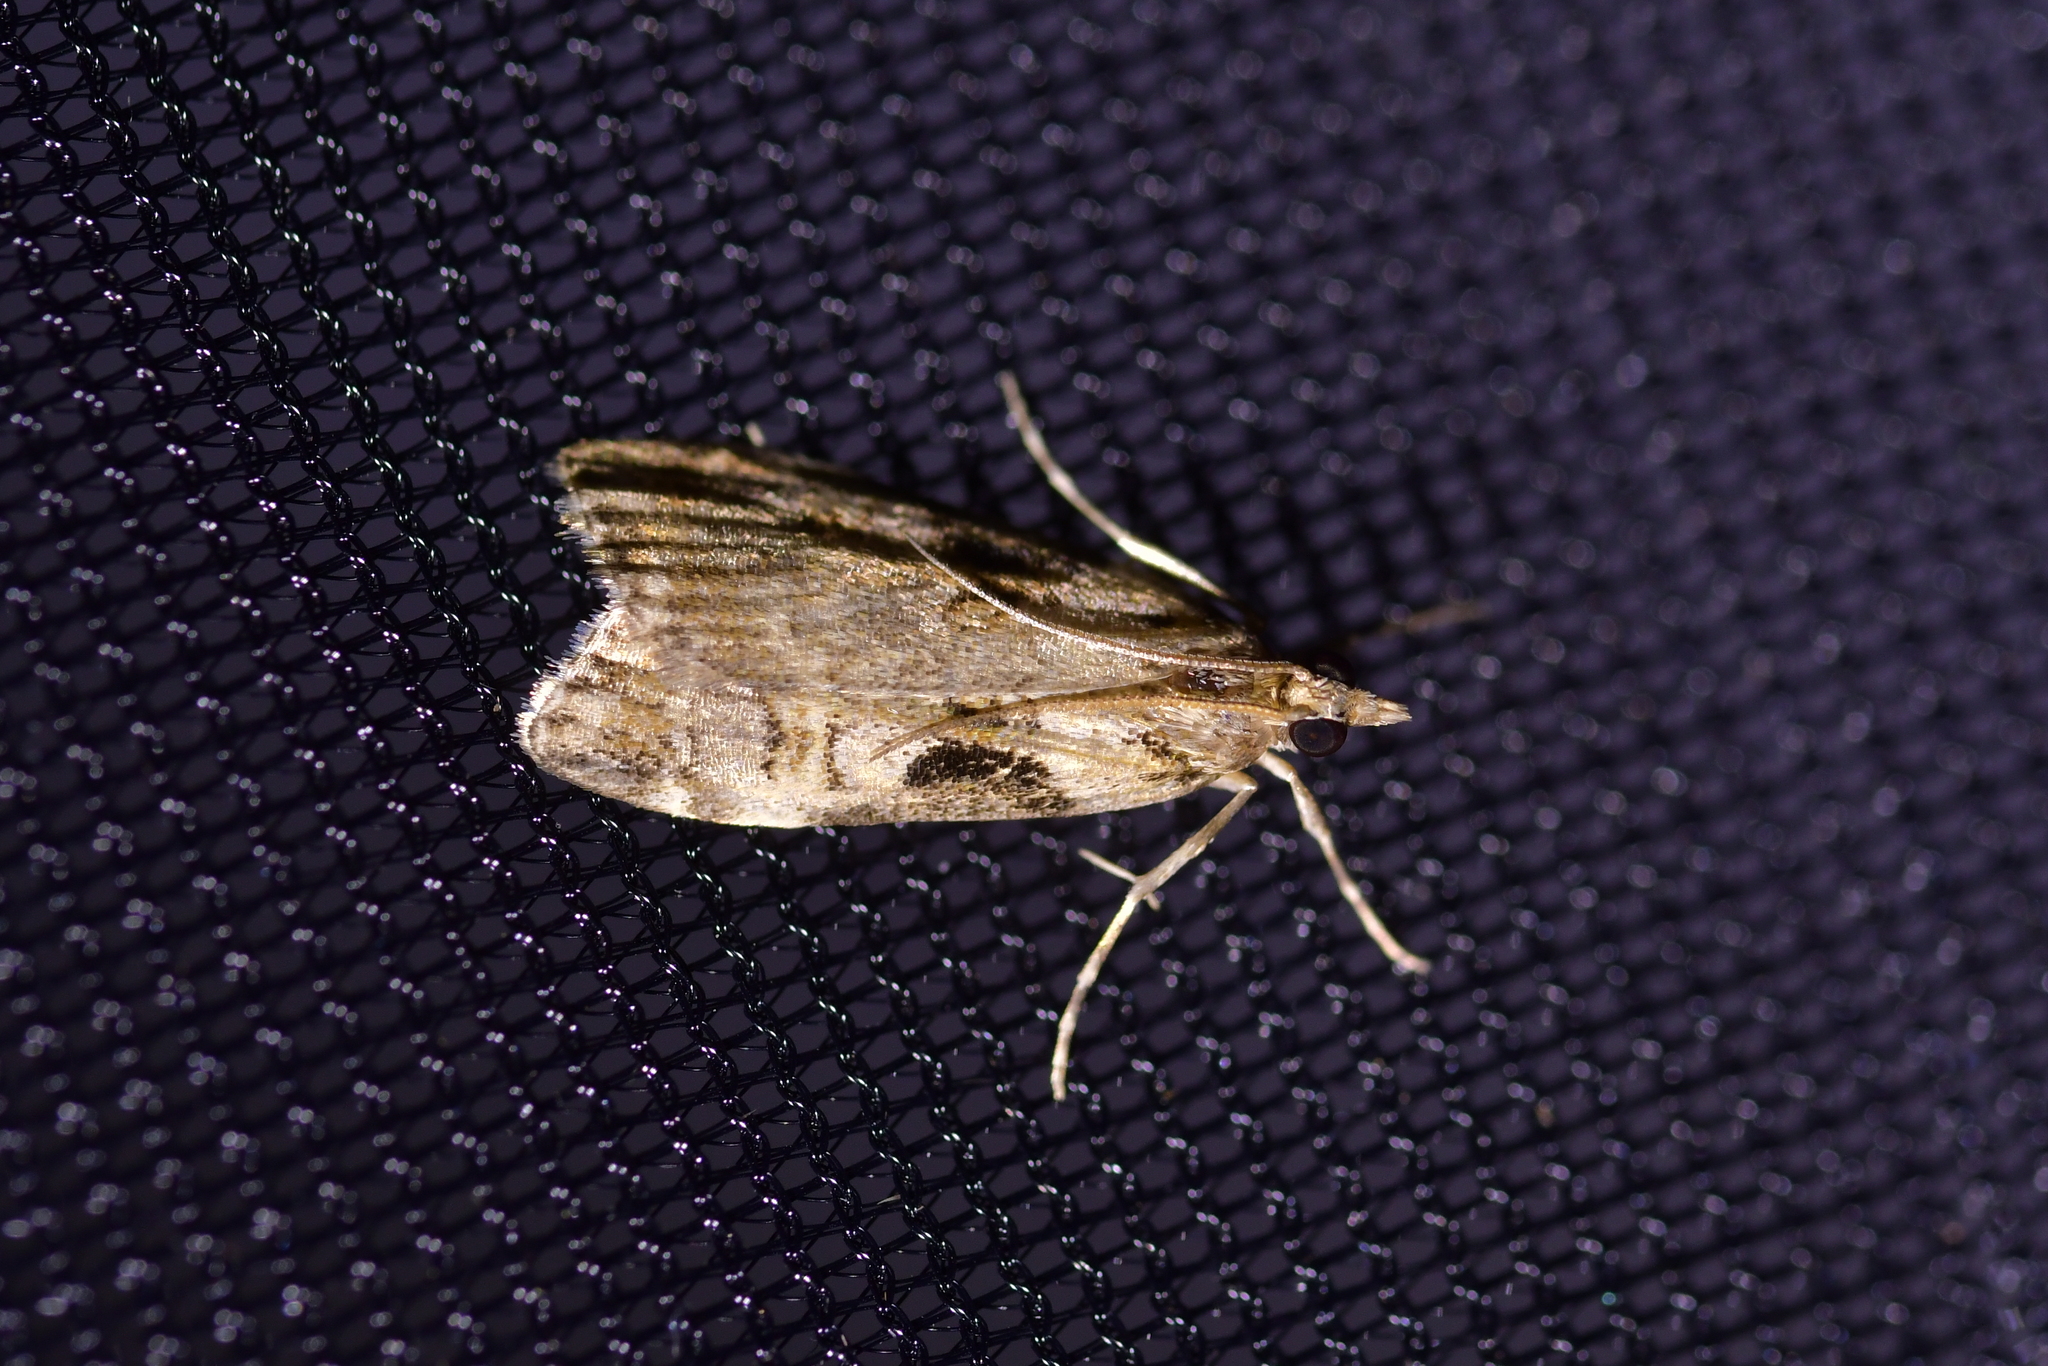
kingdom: Animalia
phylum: Arthropoda
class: Insecta
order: Lepidoptera
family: Crambidae
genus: Scoparia
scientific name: Scoparia acharis
